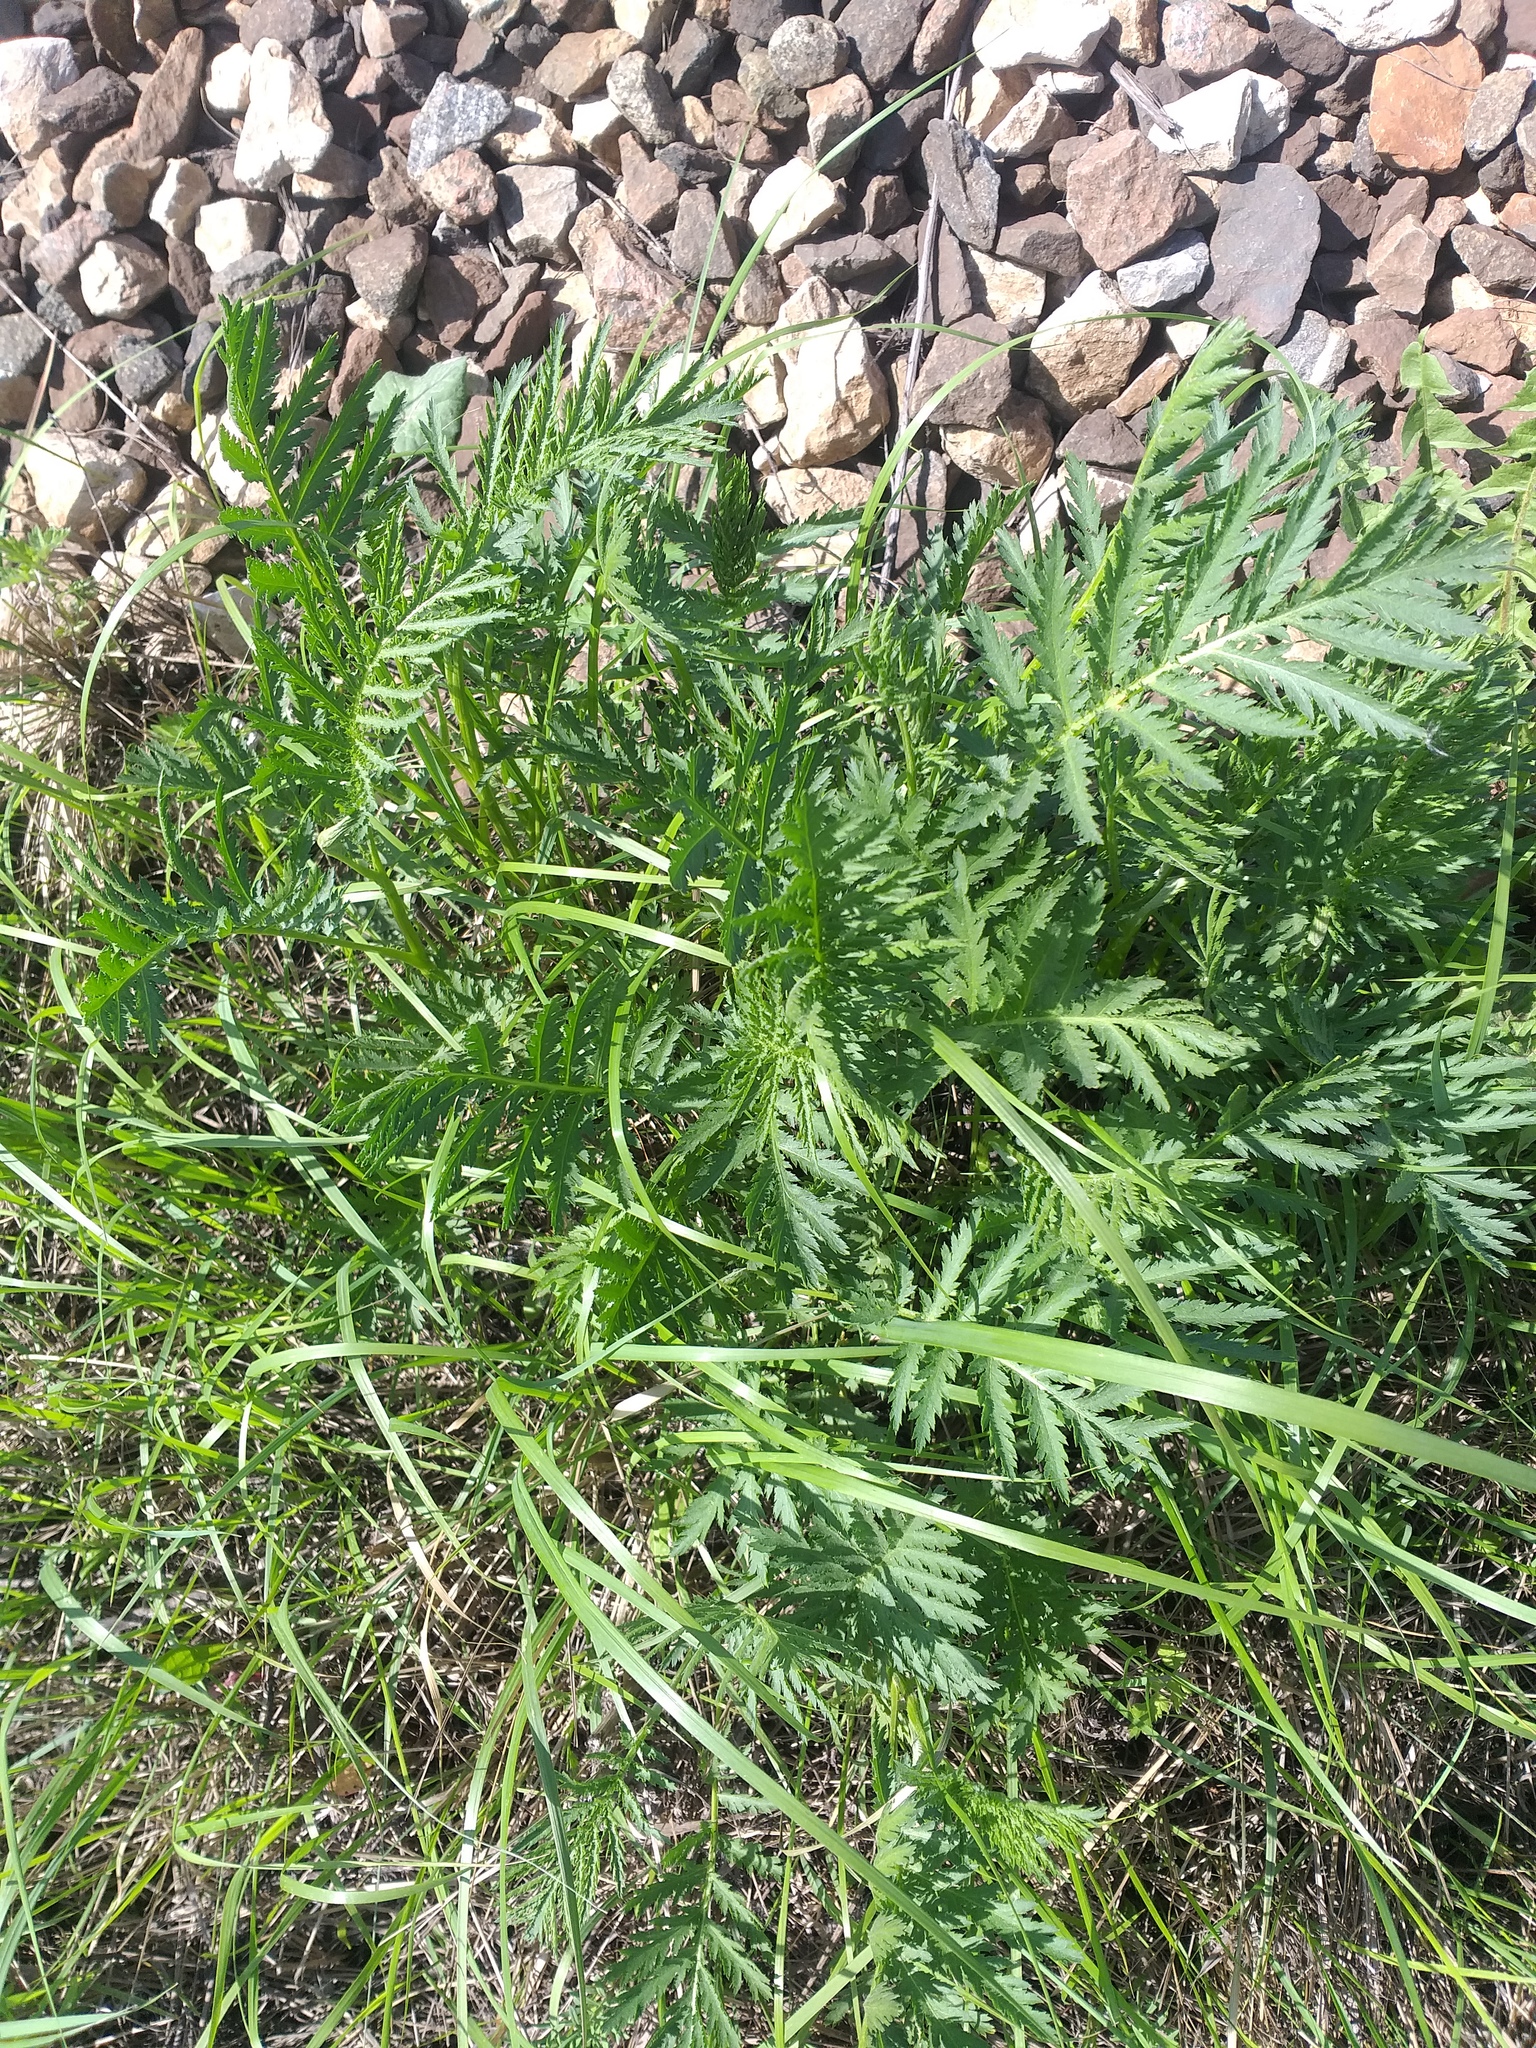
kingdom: Plantae
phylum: Tracheophyta
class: Magnoliopsida
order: Asterales
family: Asteraceae
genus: Tanacetum
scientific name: Tanacetum vulgare
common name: Common tansy
